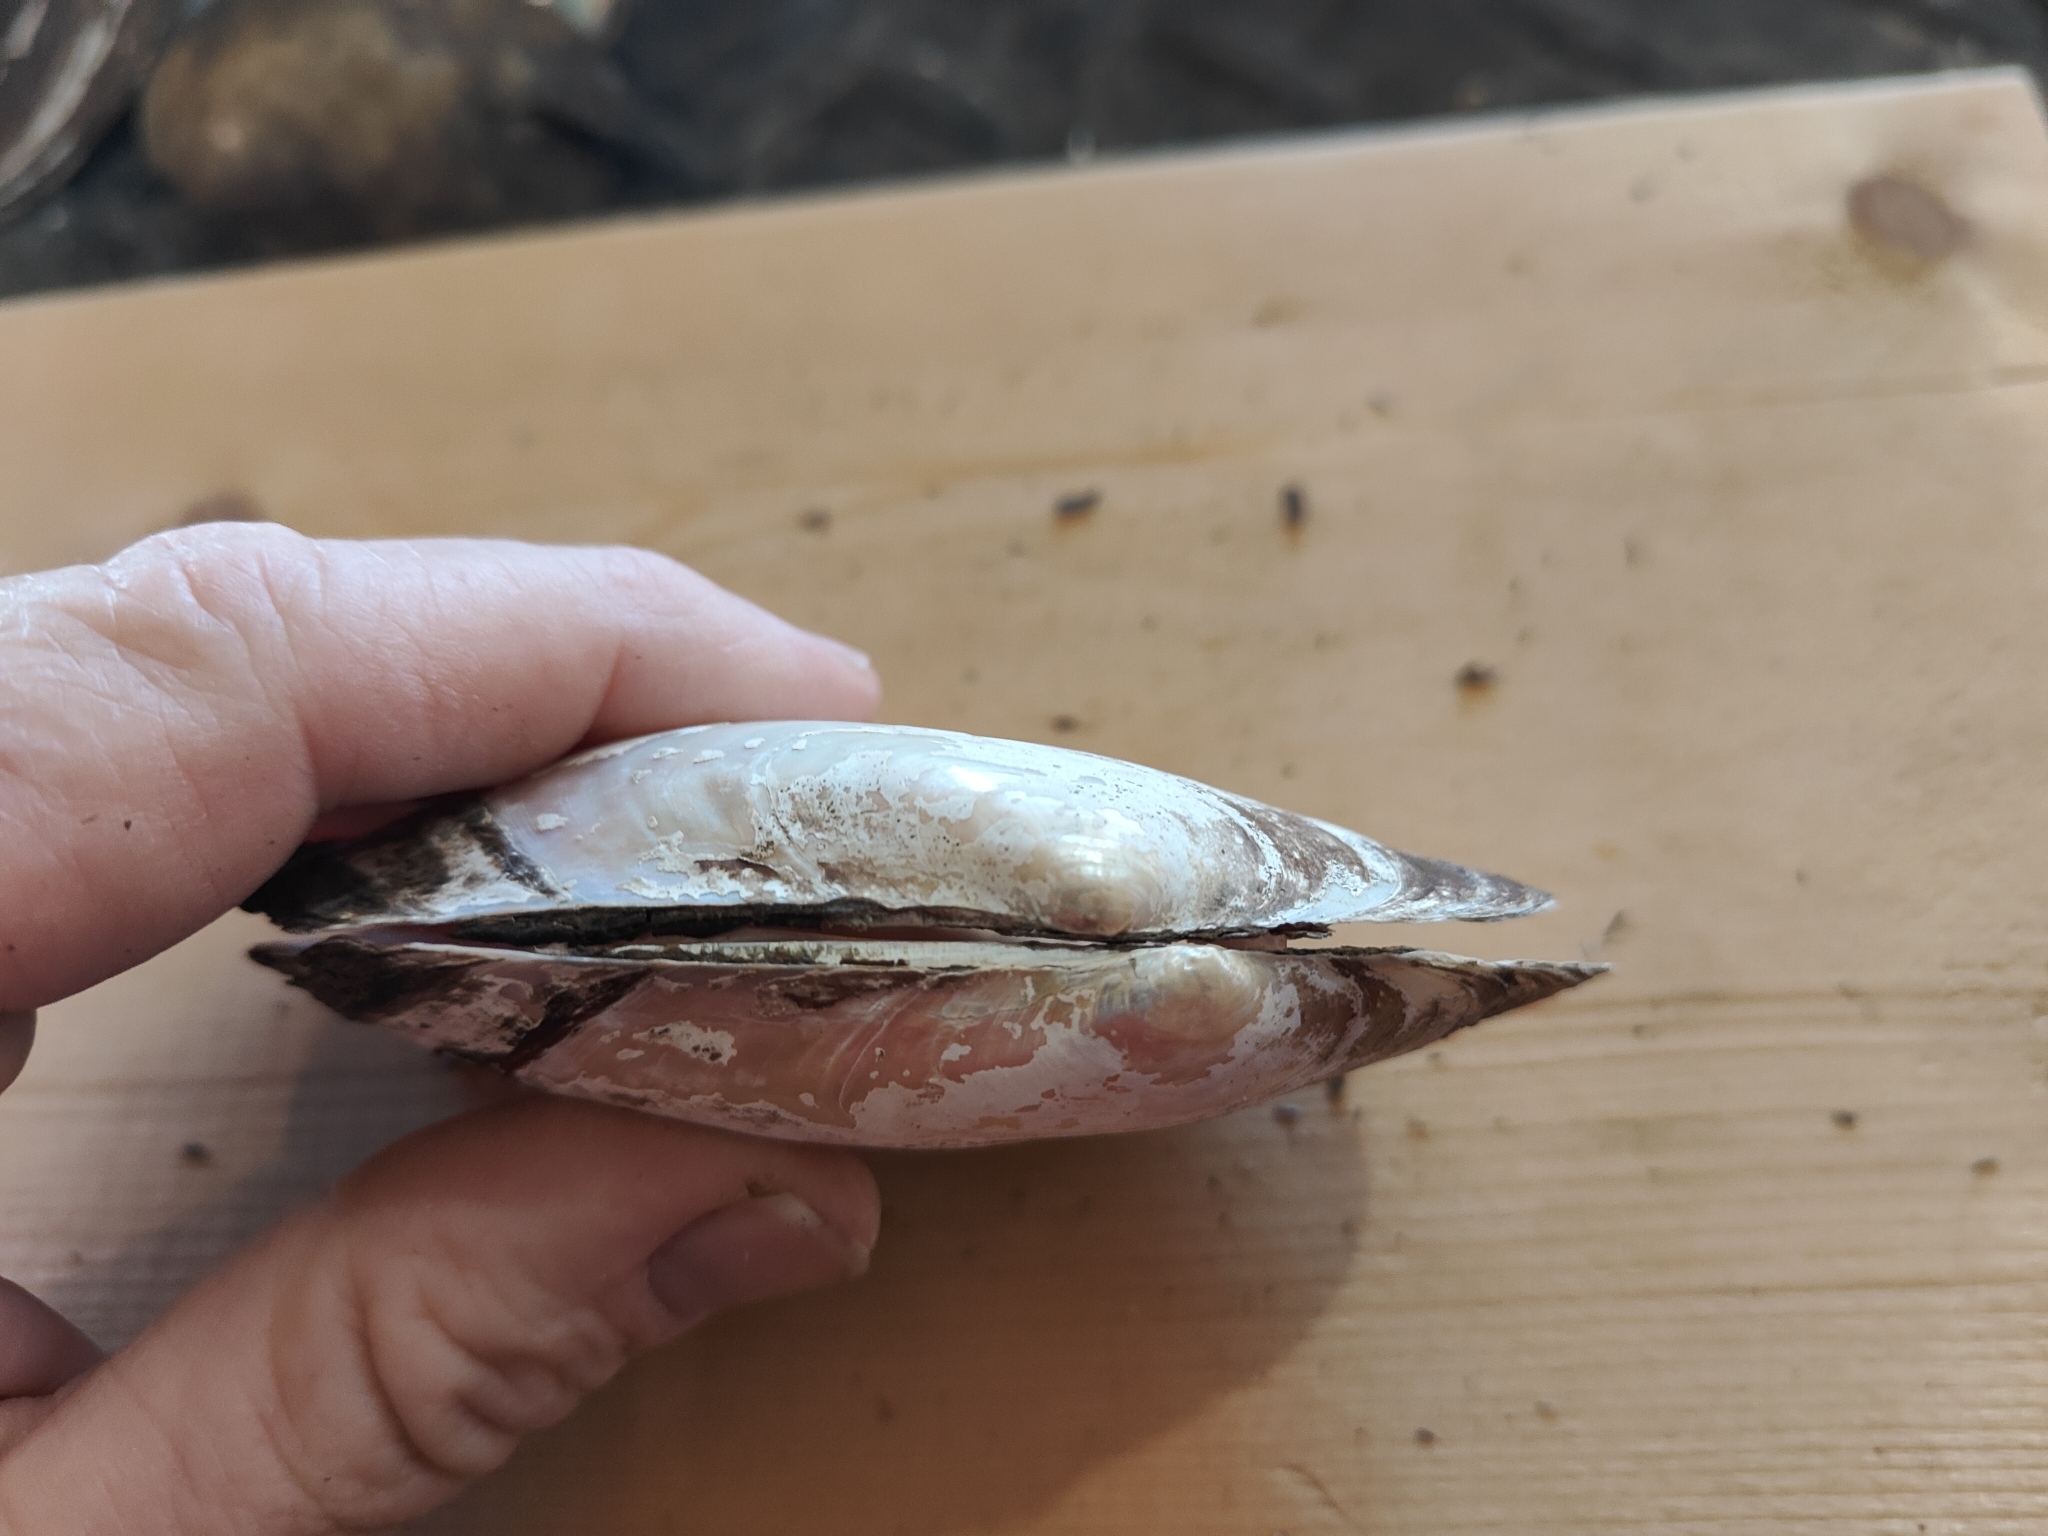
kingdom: Animalia
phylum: Mollusca
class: Bivalvia
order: Unionida
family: Unionidae
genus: Potamilus
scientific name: Potamilus ohiensis
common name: Pink papershell
